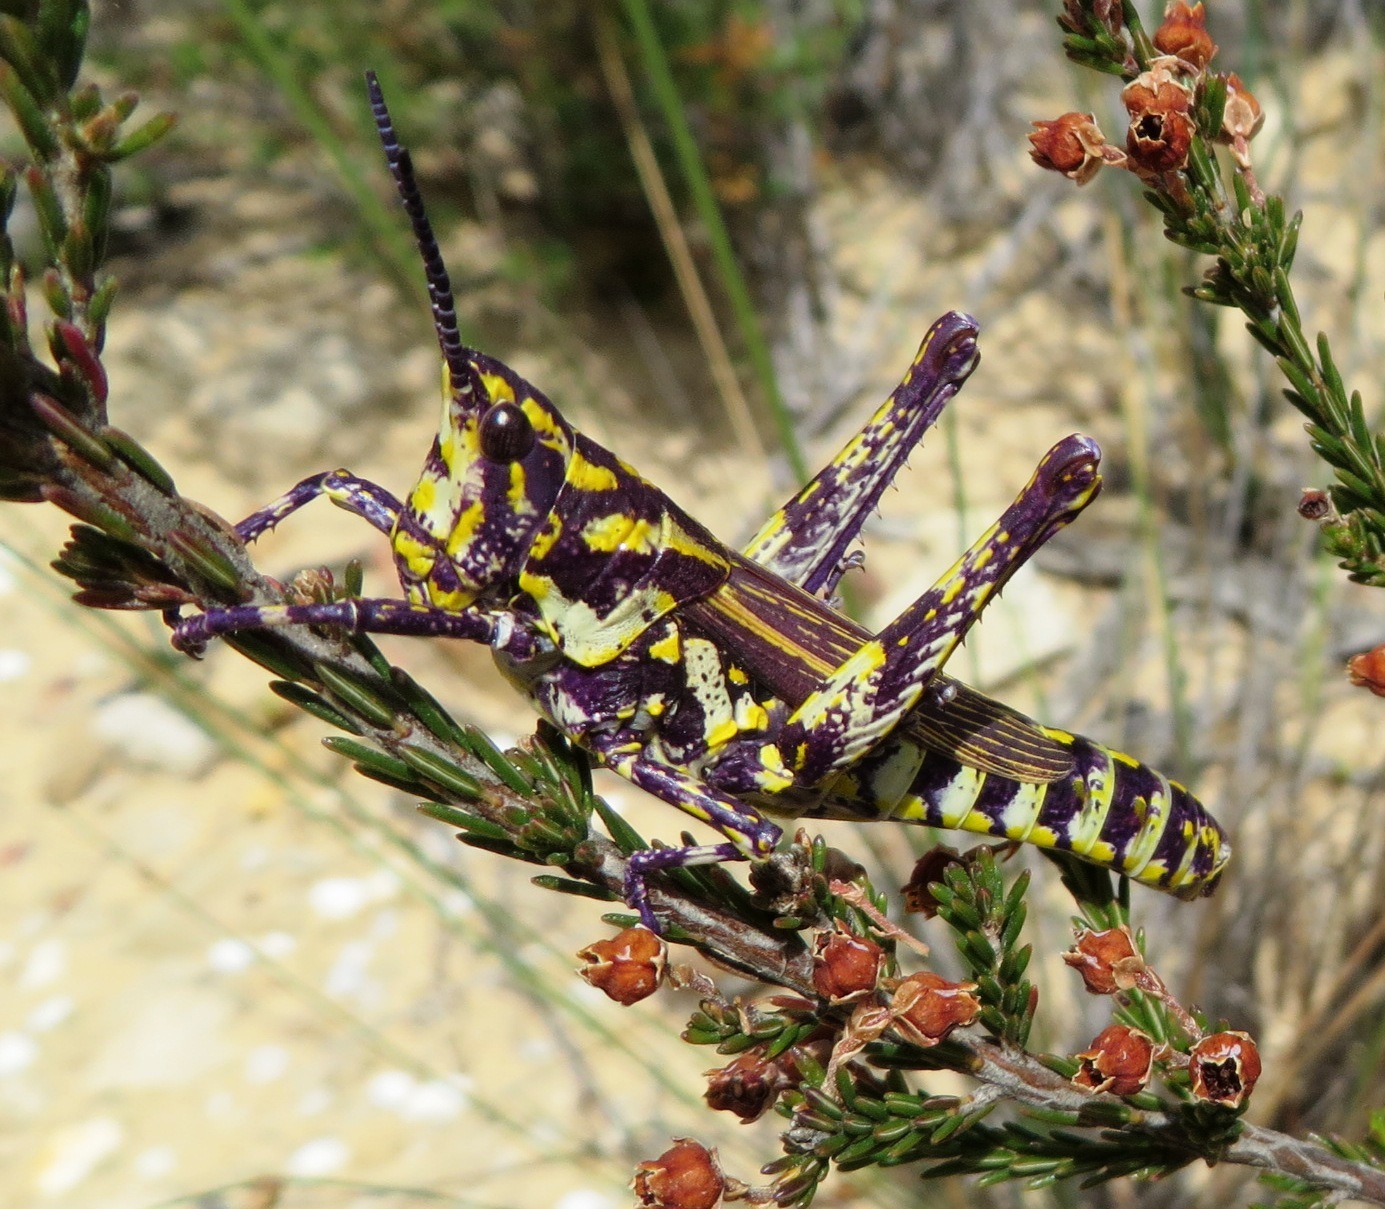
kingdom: Animalia
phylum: Arthropoda
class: Insecta
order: Orthoptera
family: Pyrgomorphidae
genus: Ochrophlebia
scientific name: Ochrophlebia cafra
